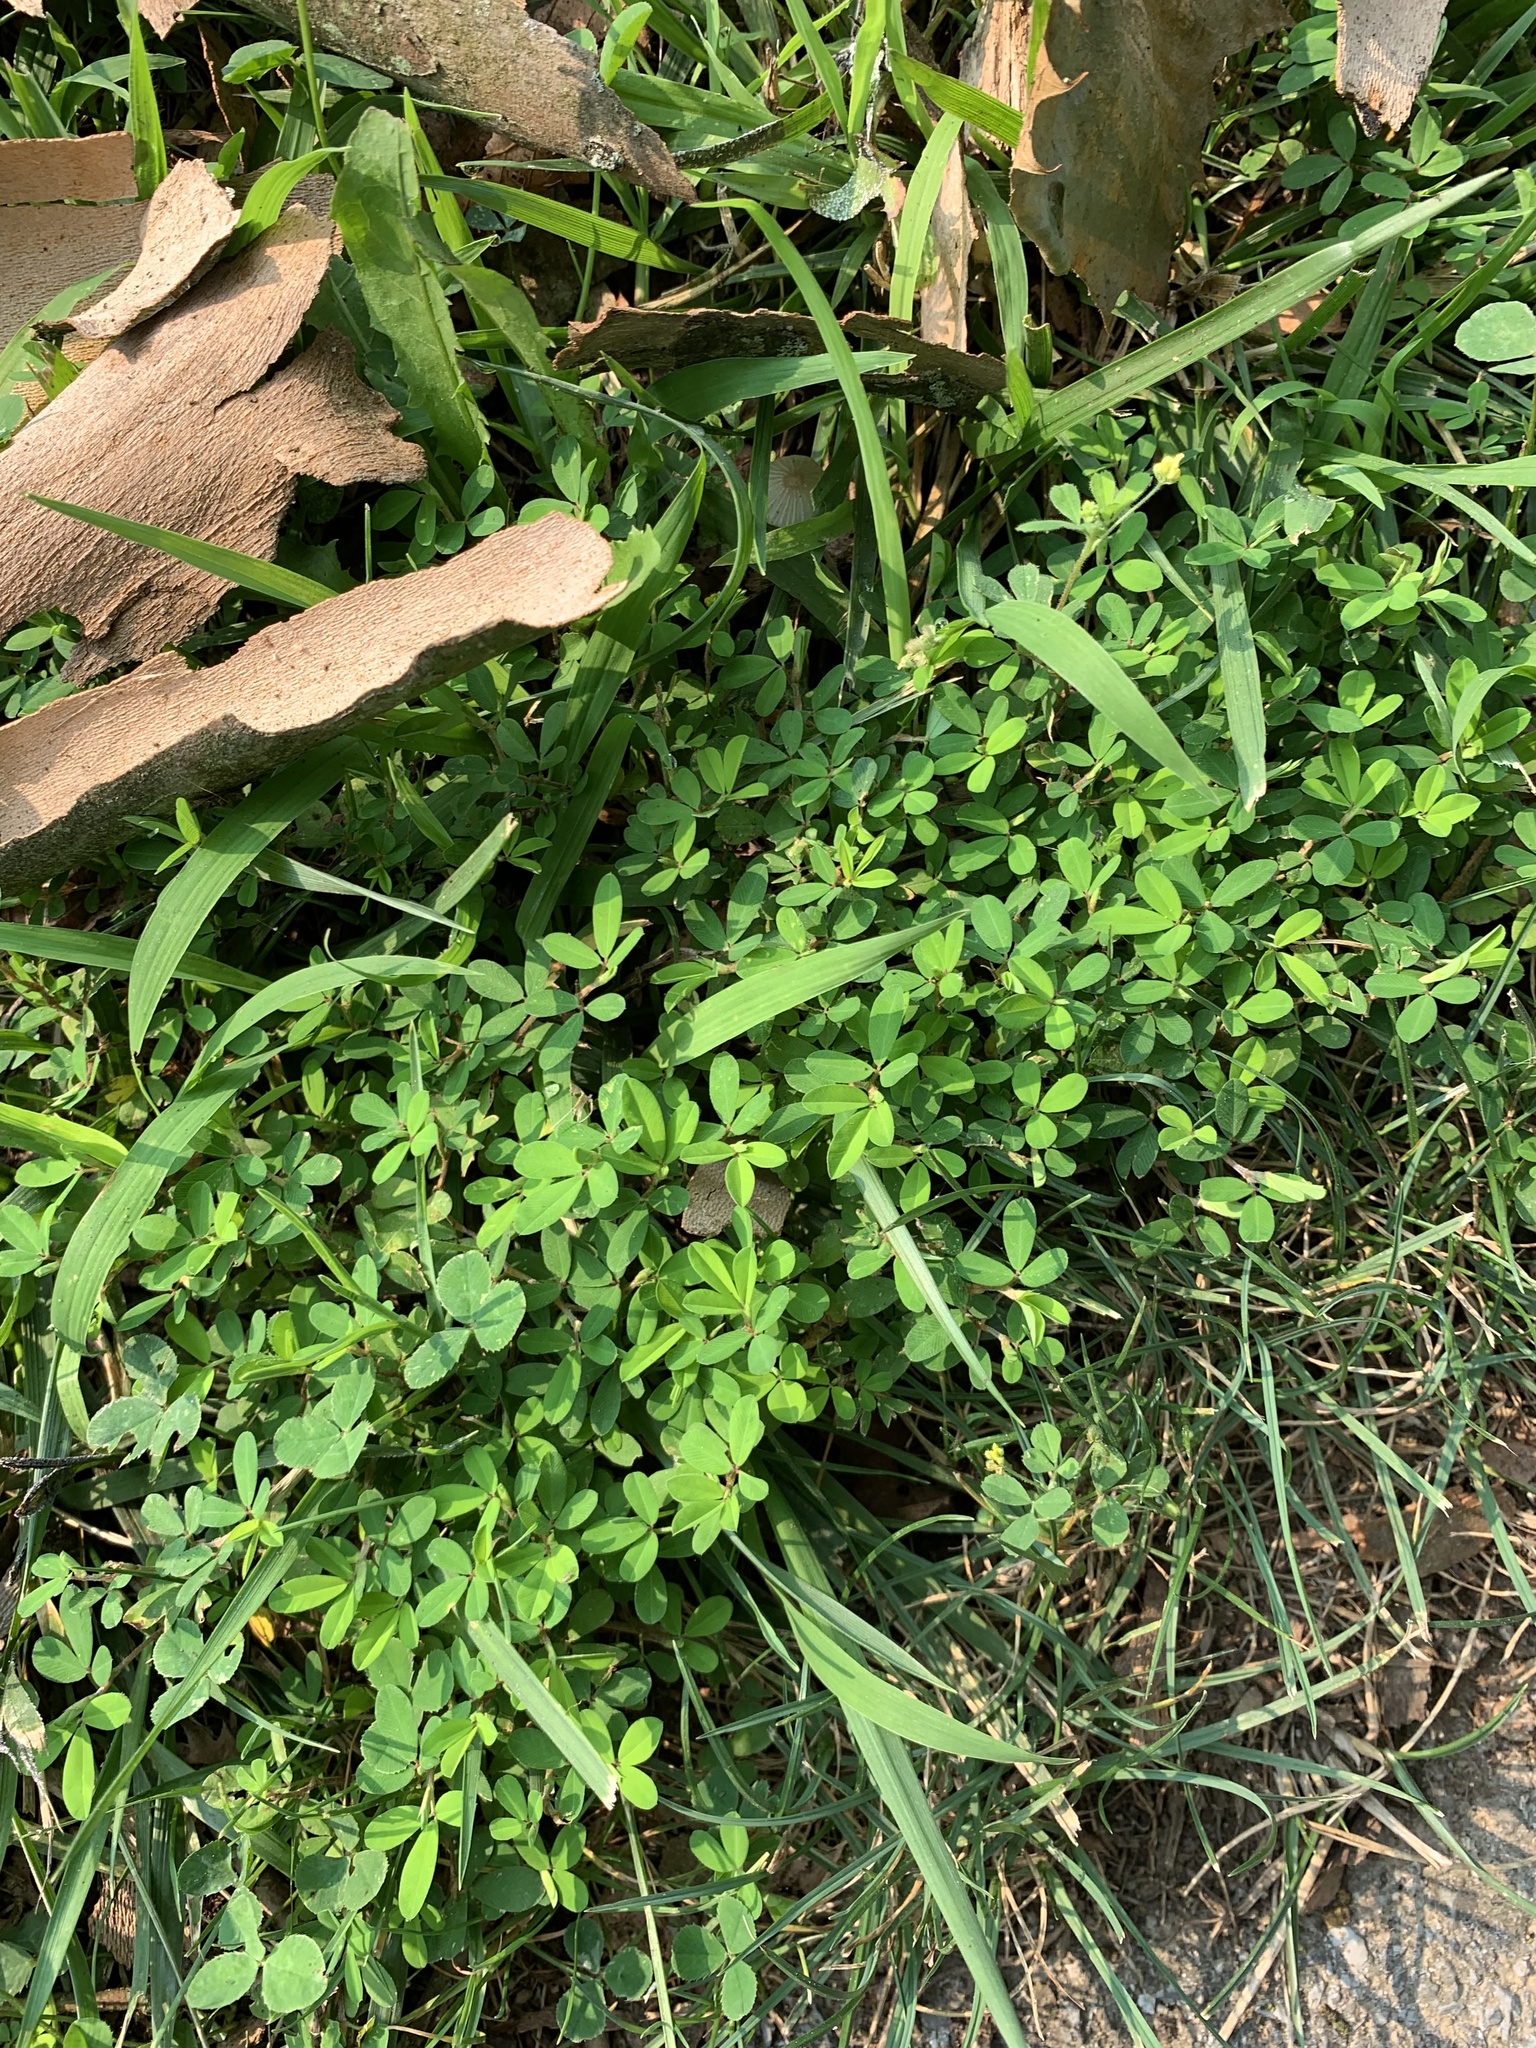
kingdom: Plantae
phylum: Tracheophyta
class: Magnoliopsida
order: Fabales
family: Fabaceae
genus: Kummerowia
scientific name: Kummerowia striata
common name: Japanese clover
